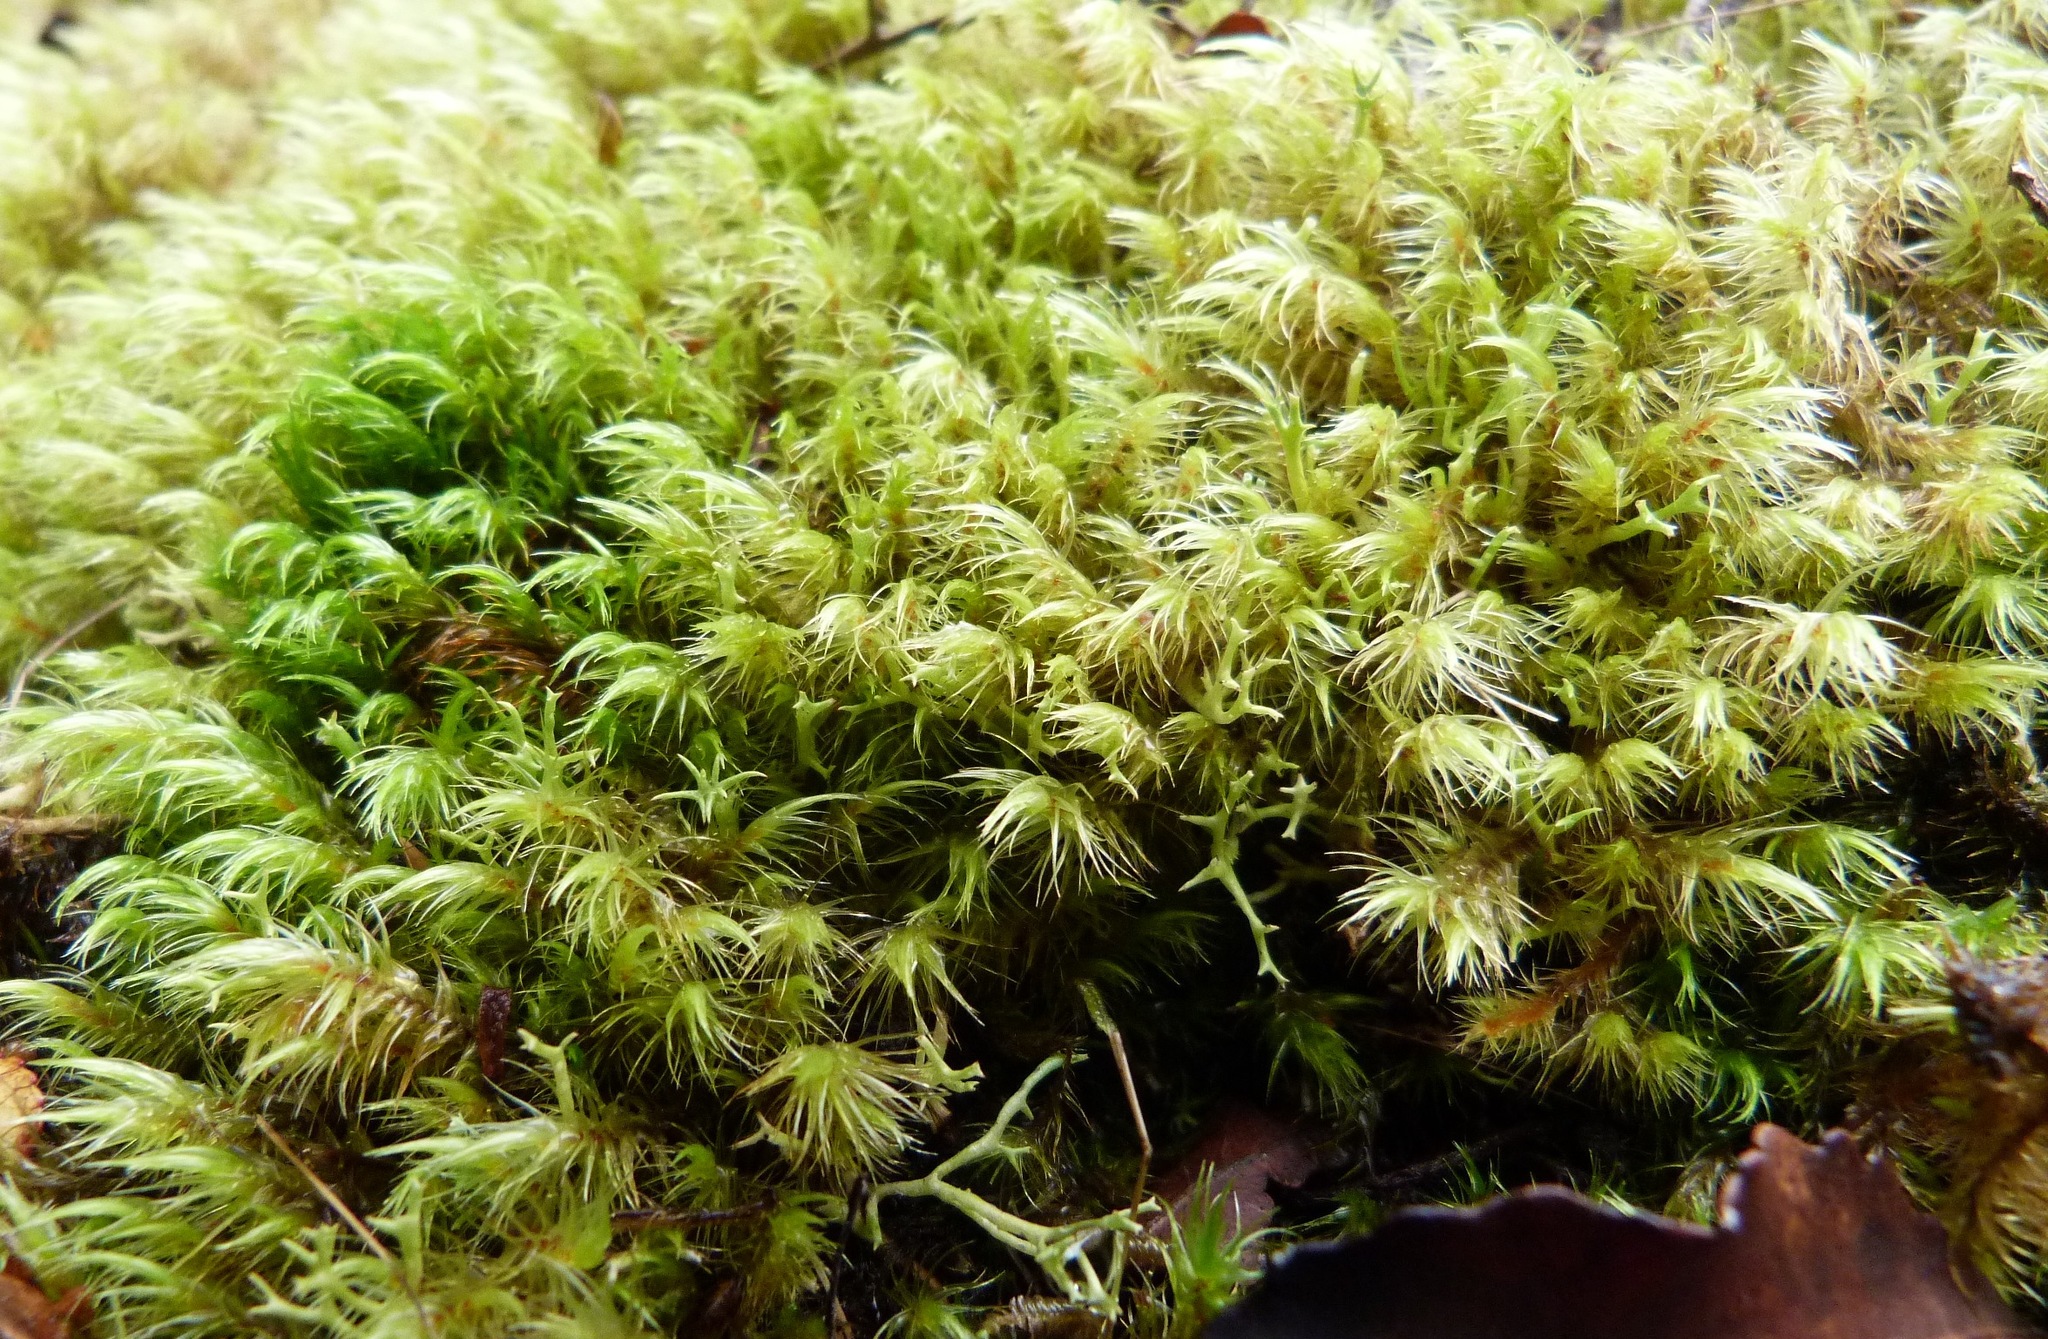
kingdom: Plantae
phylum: Bryophyta
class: Bryopsida
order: Dicranales
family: Dicranaceae
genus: Dicranoloma
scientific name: Dicranoloma billardieri
